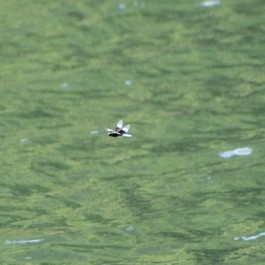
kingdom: Animalia
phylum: Arthropoda
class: Insecta
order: Odonata
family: Libellulidae
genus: Libellula
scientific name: Libellula luctuosa
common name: Widow skimmer
